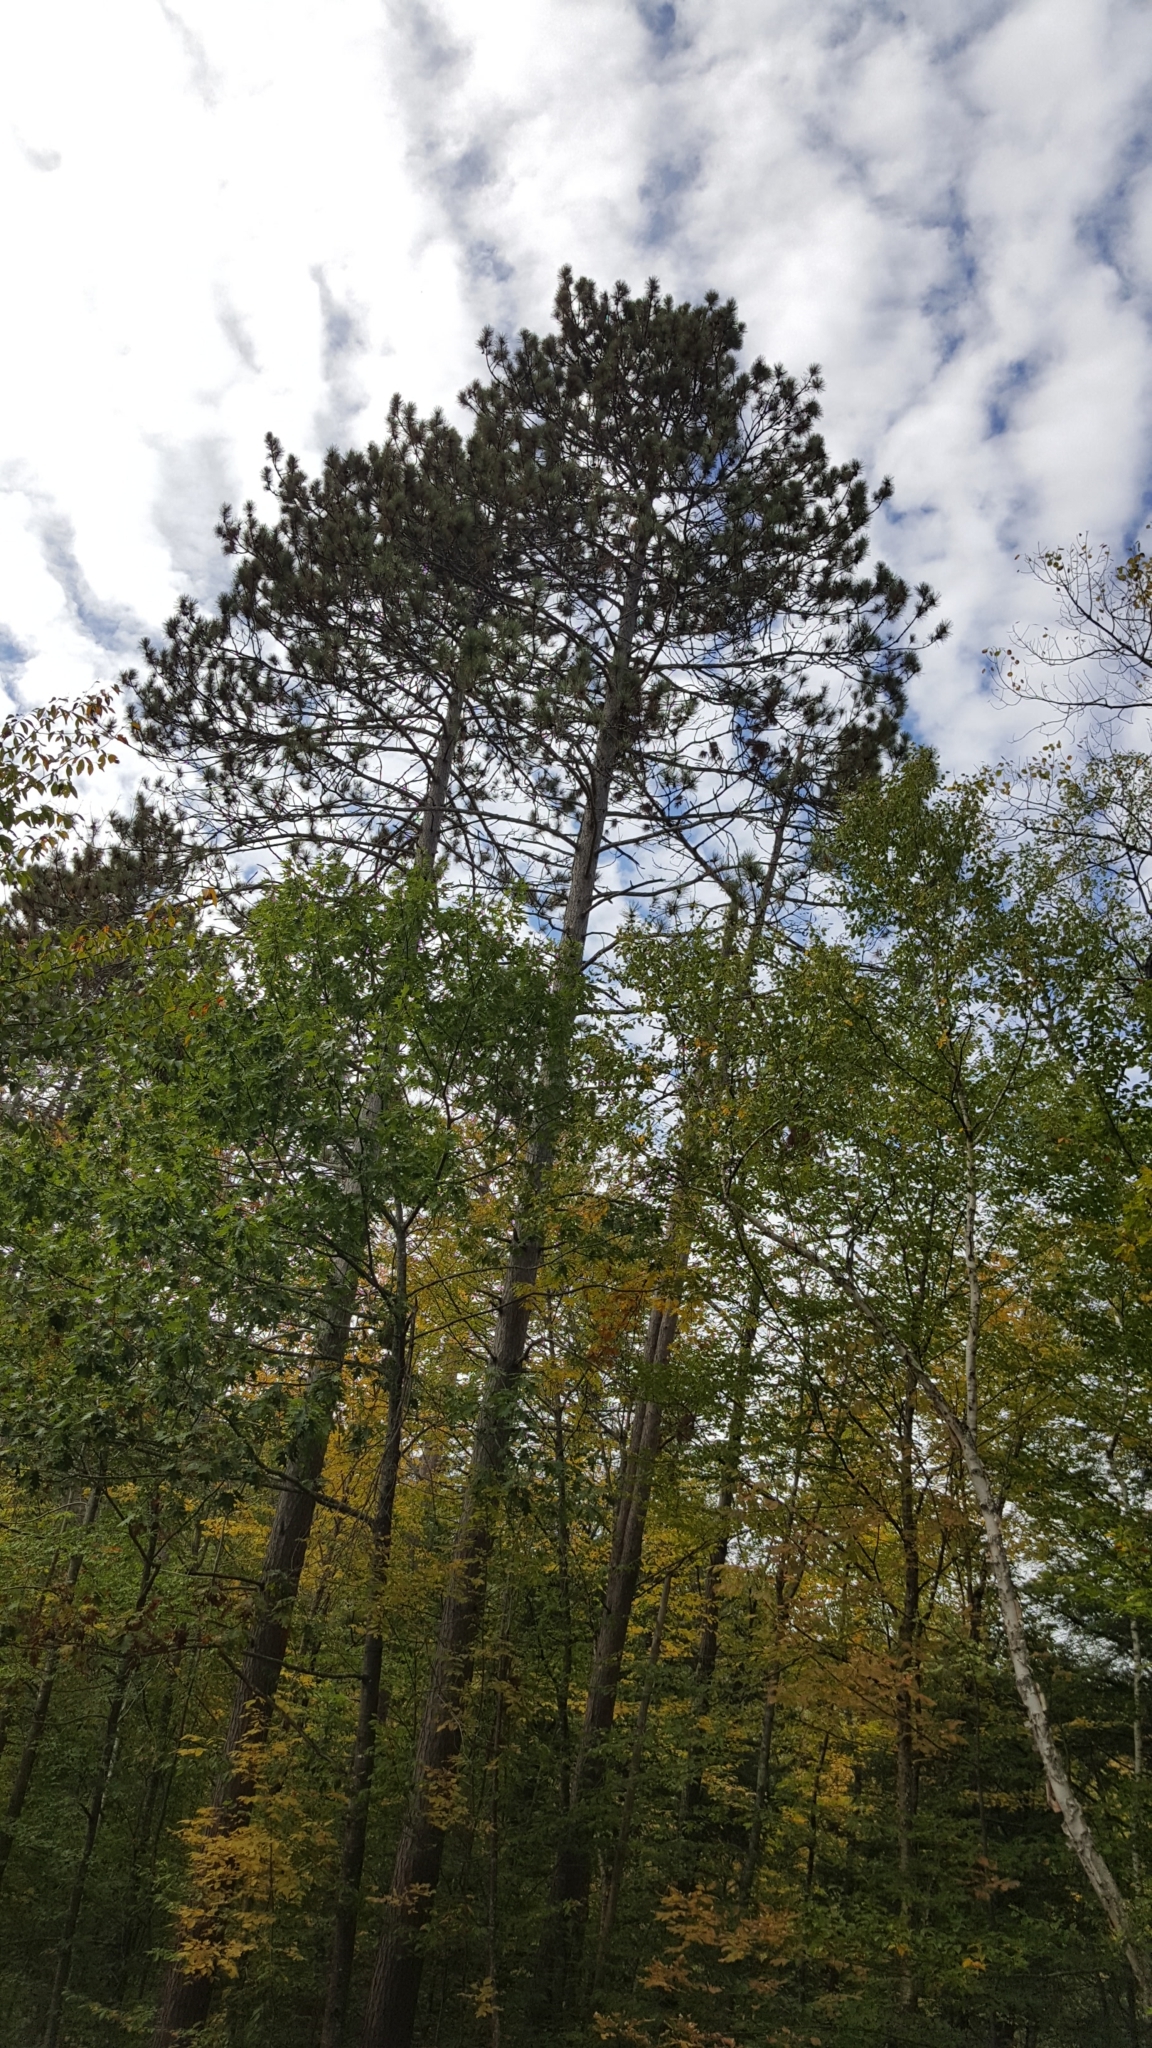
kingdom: Plantae
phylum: Tracheophyta
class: Pinopsida
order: Pinales
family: Pinaceae
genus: Pinus
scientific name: Pinus resinosa
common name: Norway pine
